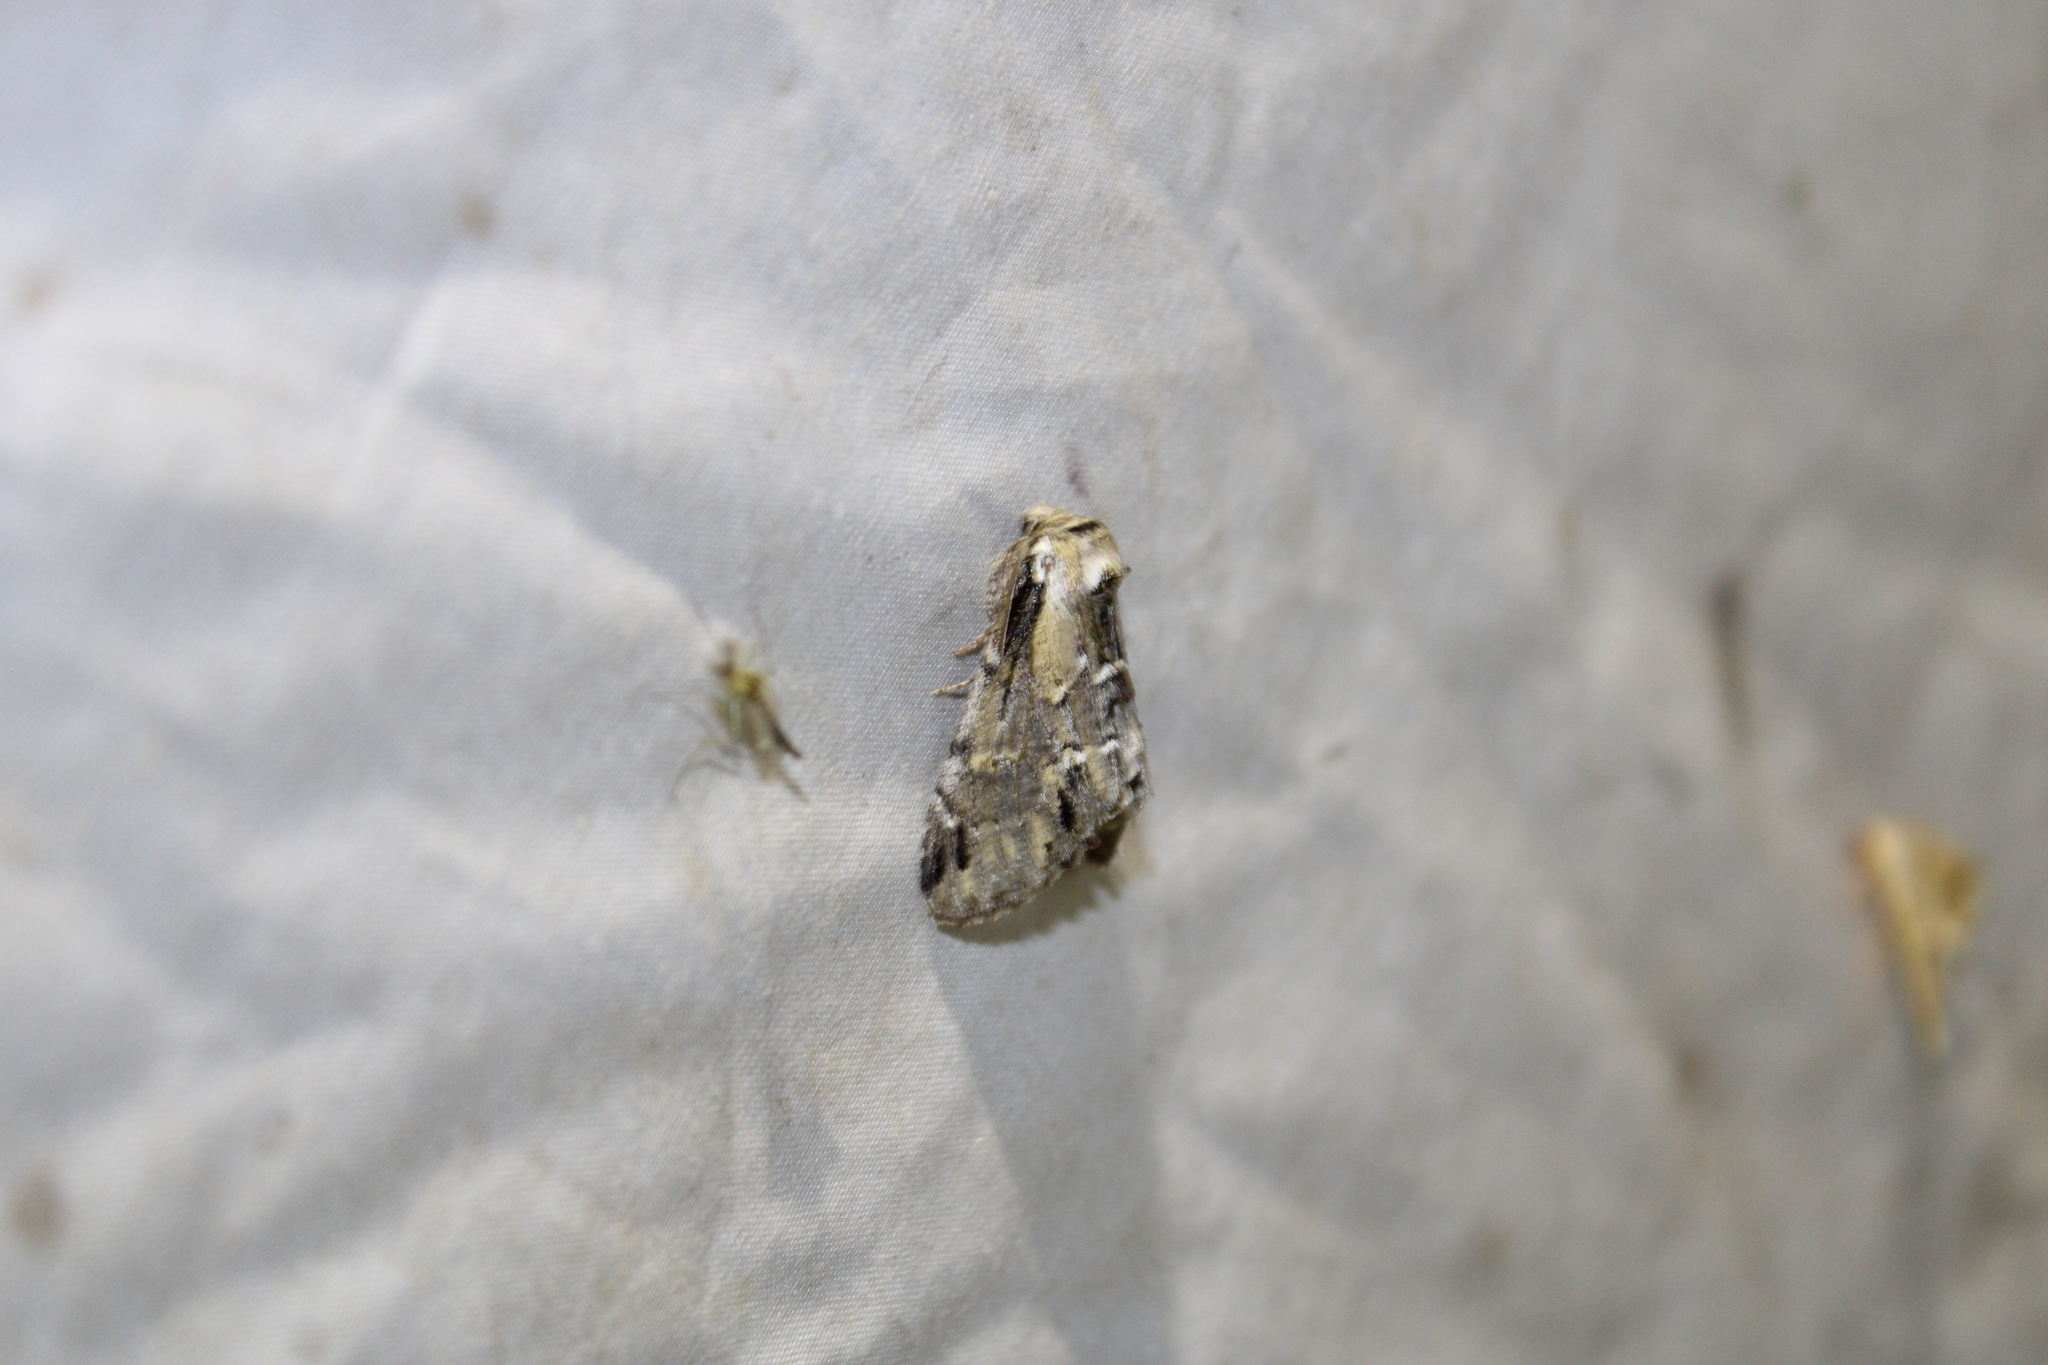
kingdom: Animalia
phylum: Arthropoda
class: Insecta
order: Lepidoptera
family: Notodontidae
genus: Paraeschra
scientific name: Paraeschra georgica
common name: Georgian prominent
